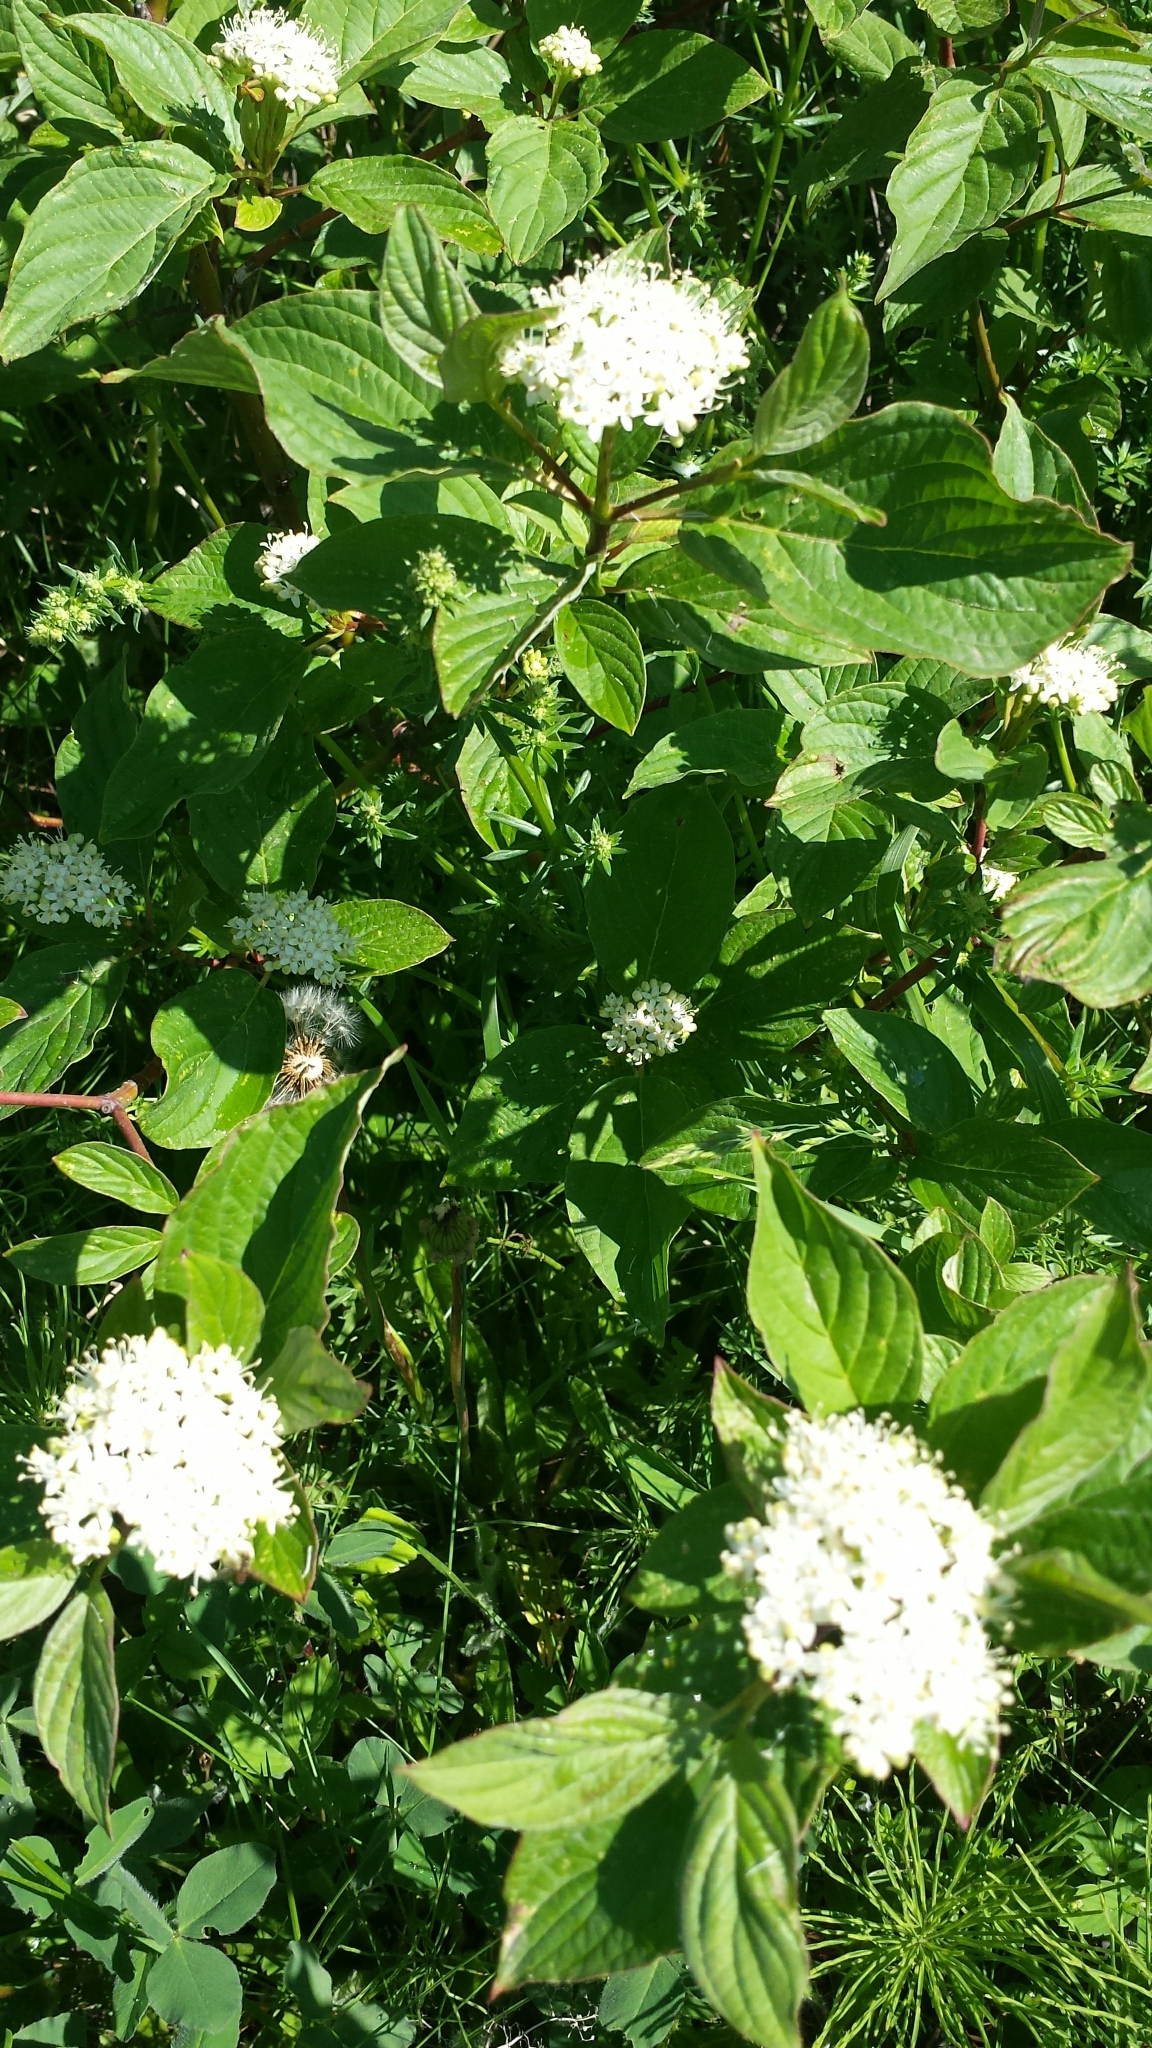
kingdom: Plantae
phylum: Tracheophyta
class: Magnoliopsida
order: Cornales
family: Cornaceae
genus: Cornus
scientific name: Cornus sericea
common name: Red-osier dogwood
